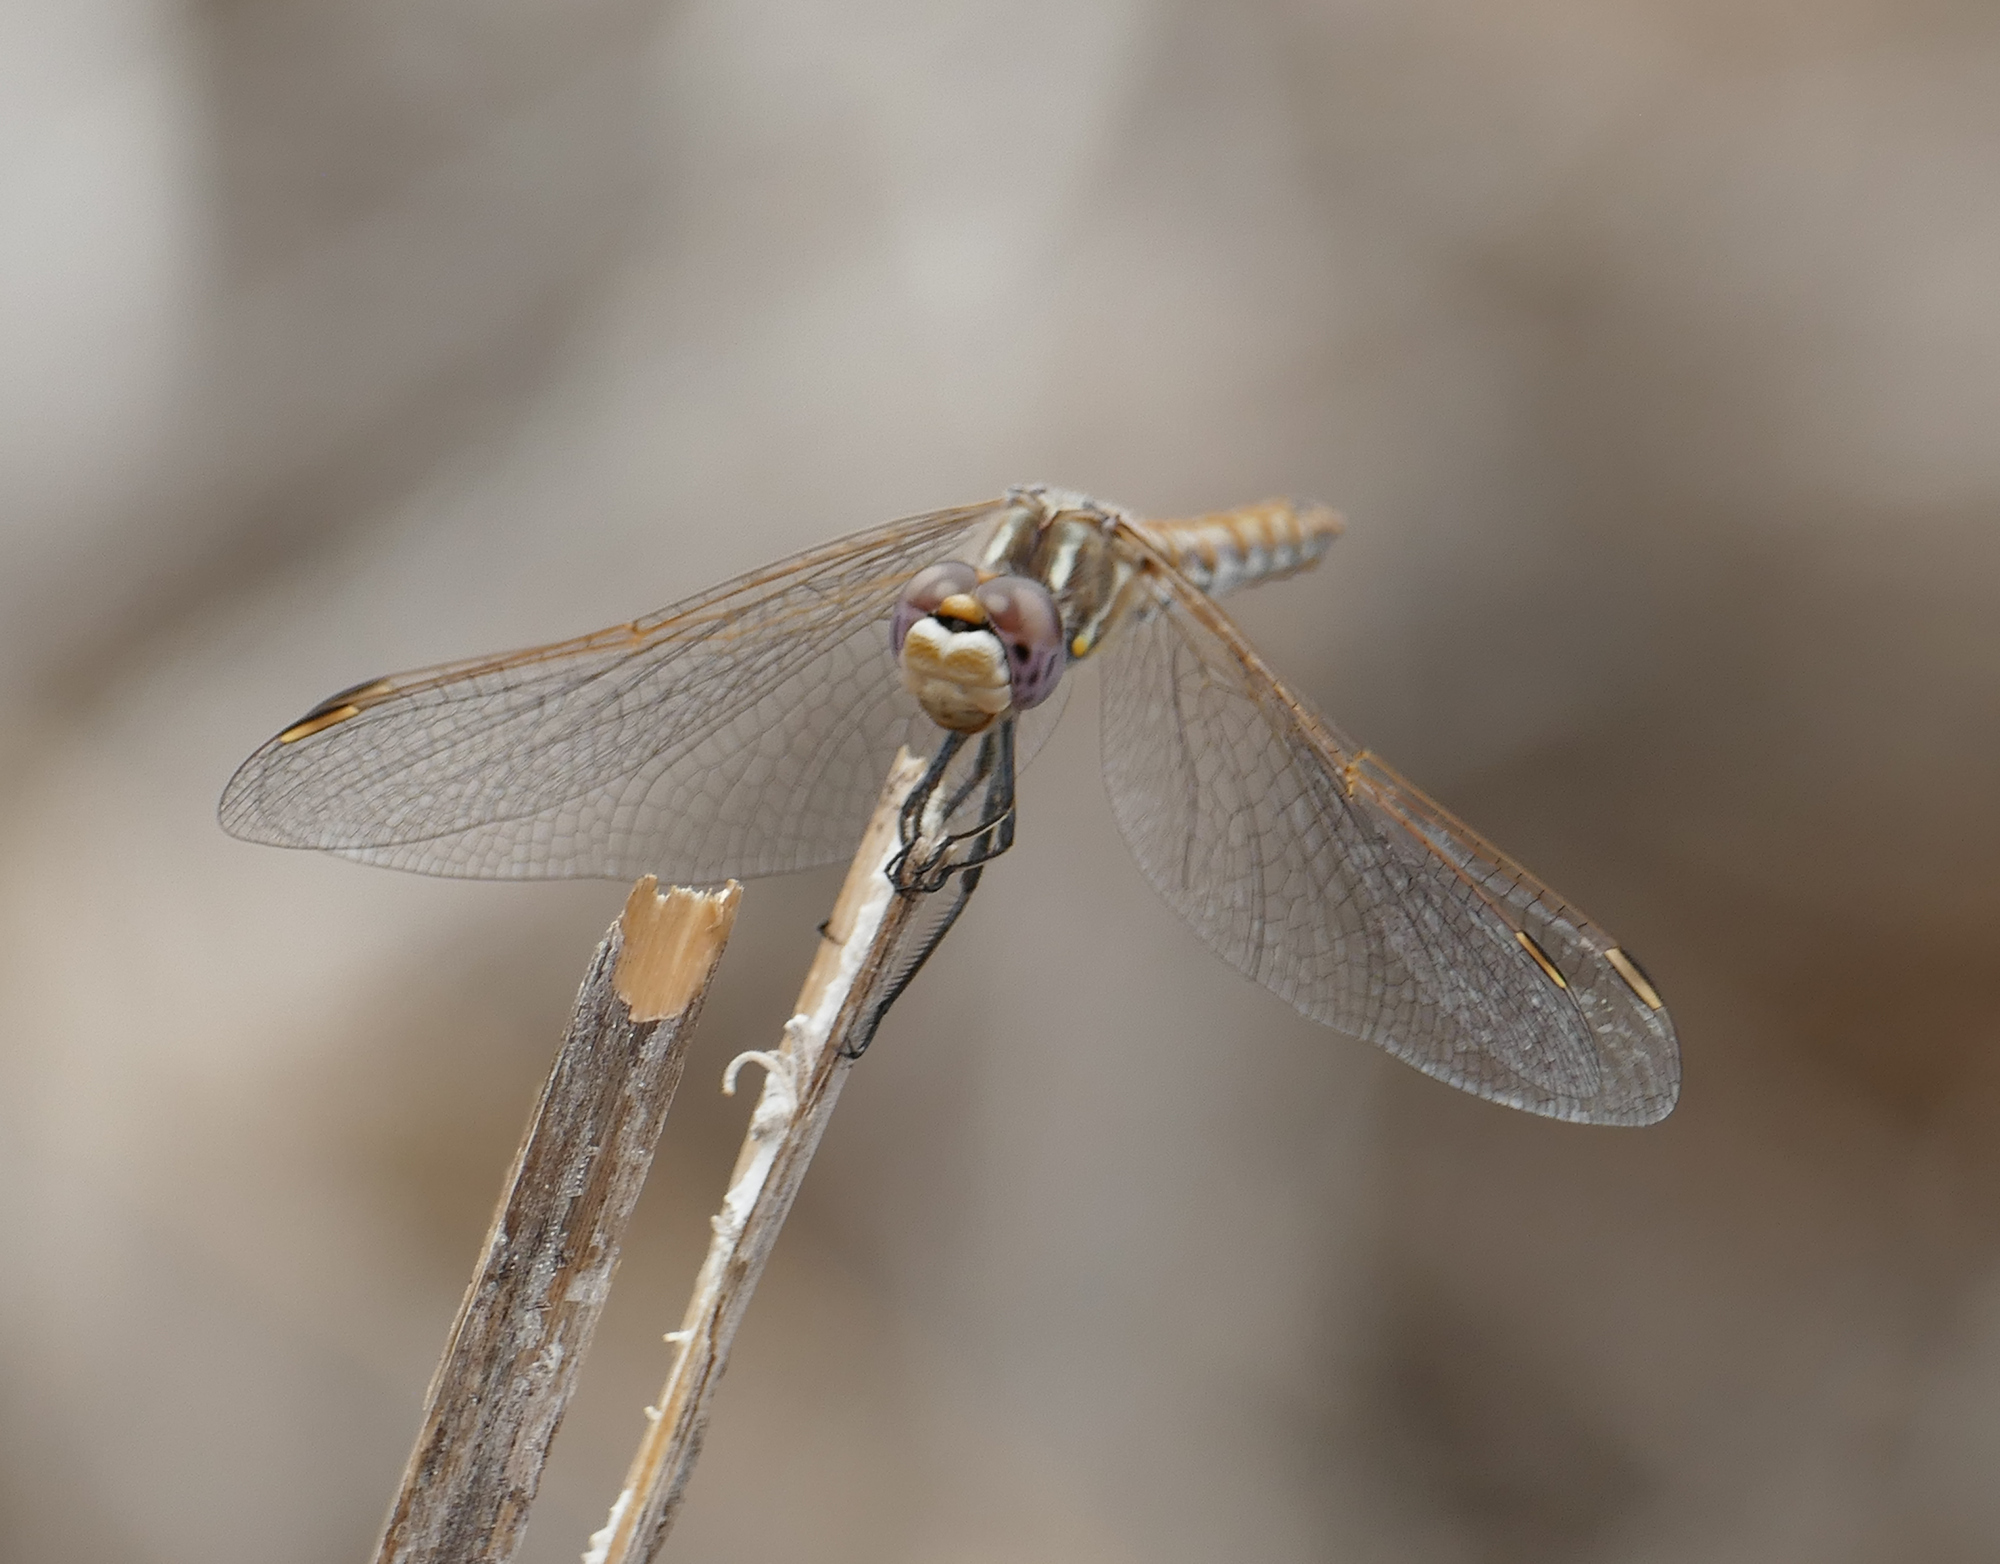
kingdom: Animalia
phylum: Arthropoda
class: Insecta
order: Odonata
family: Libellulidae
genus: Sympetrum
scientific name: Sympetrum corruptum
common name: Variegated meadowhawk
